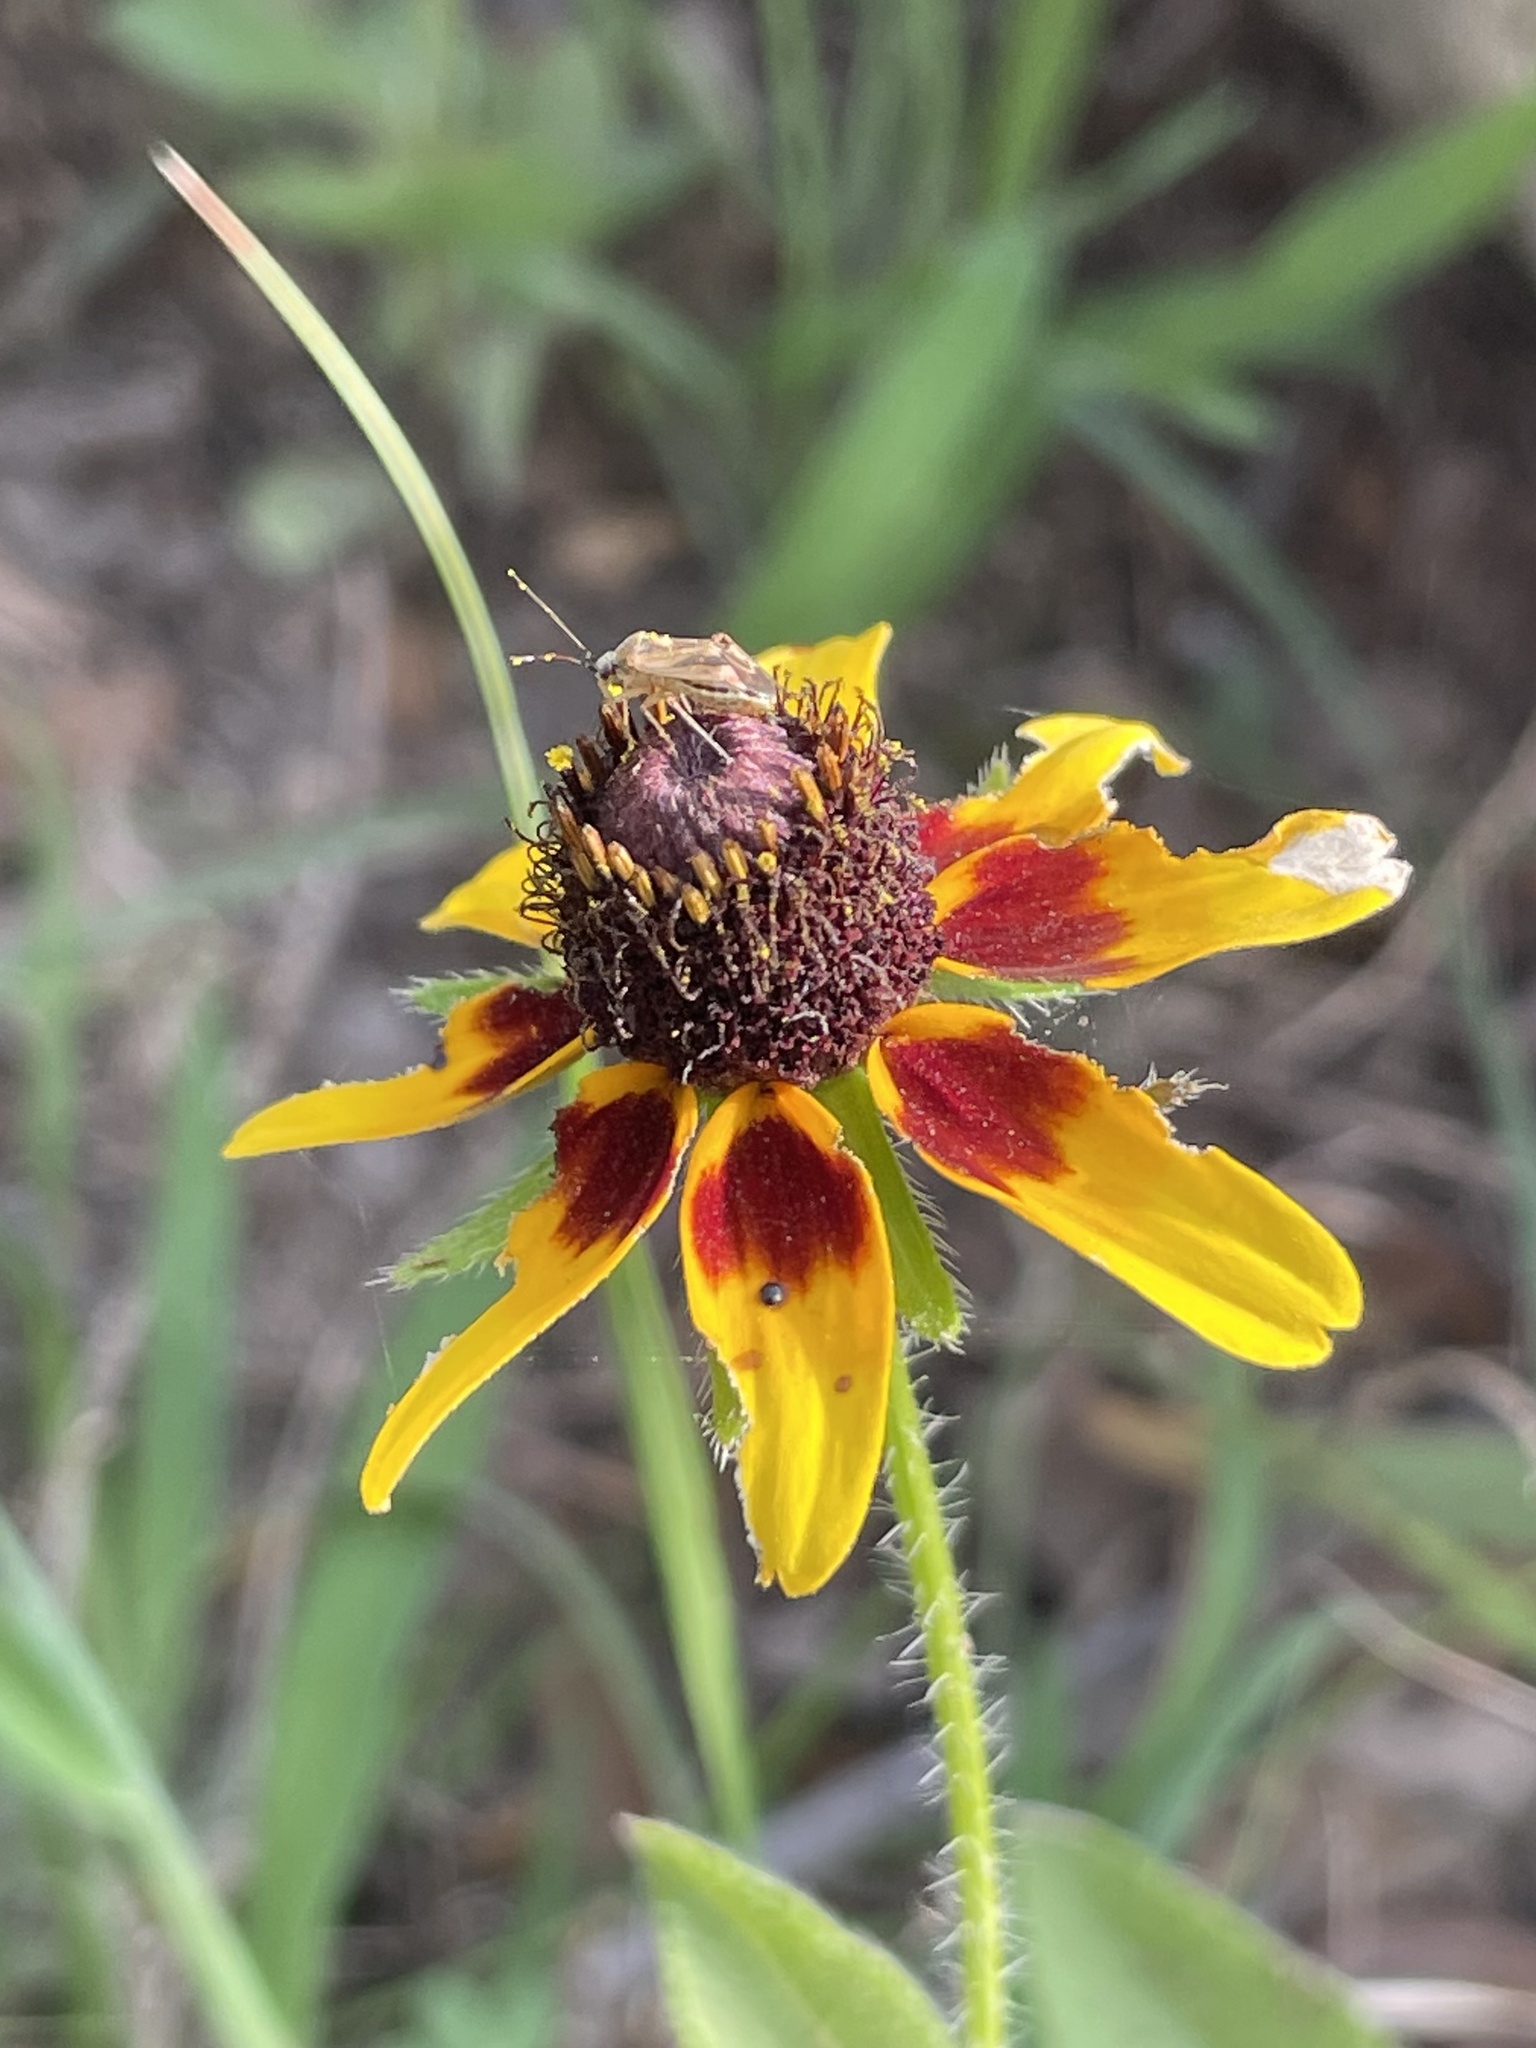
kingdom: Plantae
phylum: Tracheophyta
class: Magnoliopsida
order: Asterales
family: Asteraceae
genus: Rudbeckia
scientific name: Rudbeckia hirta
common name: Black-eyed-susan
